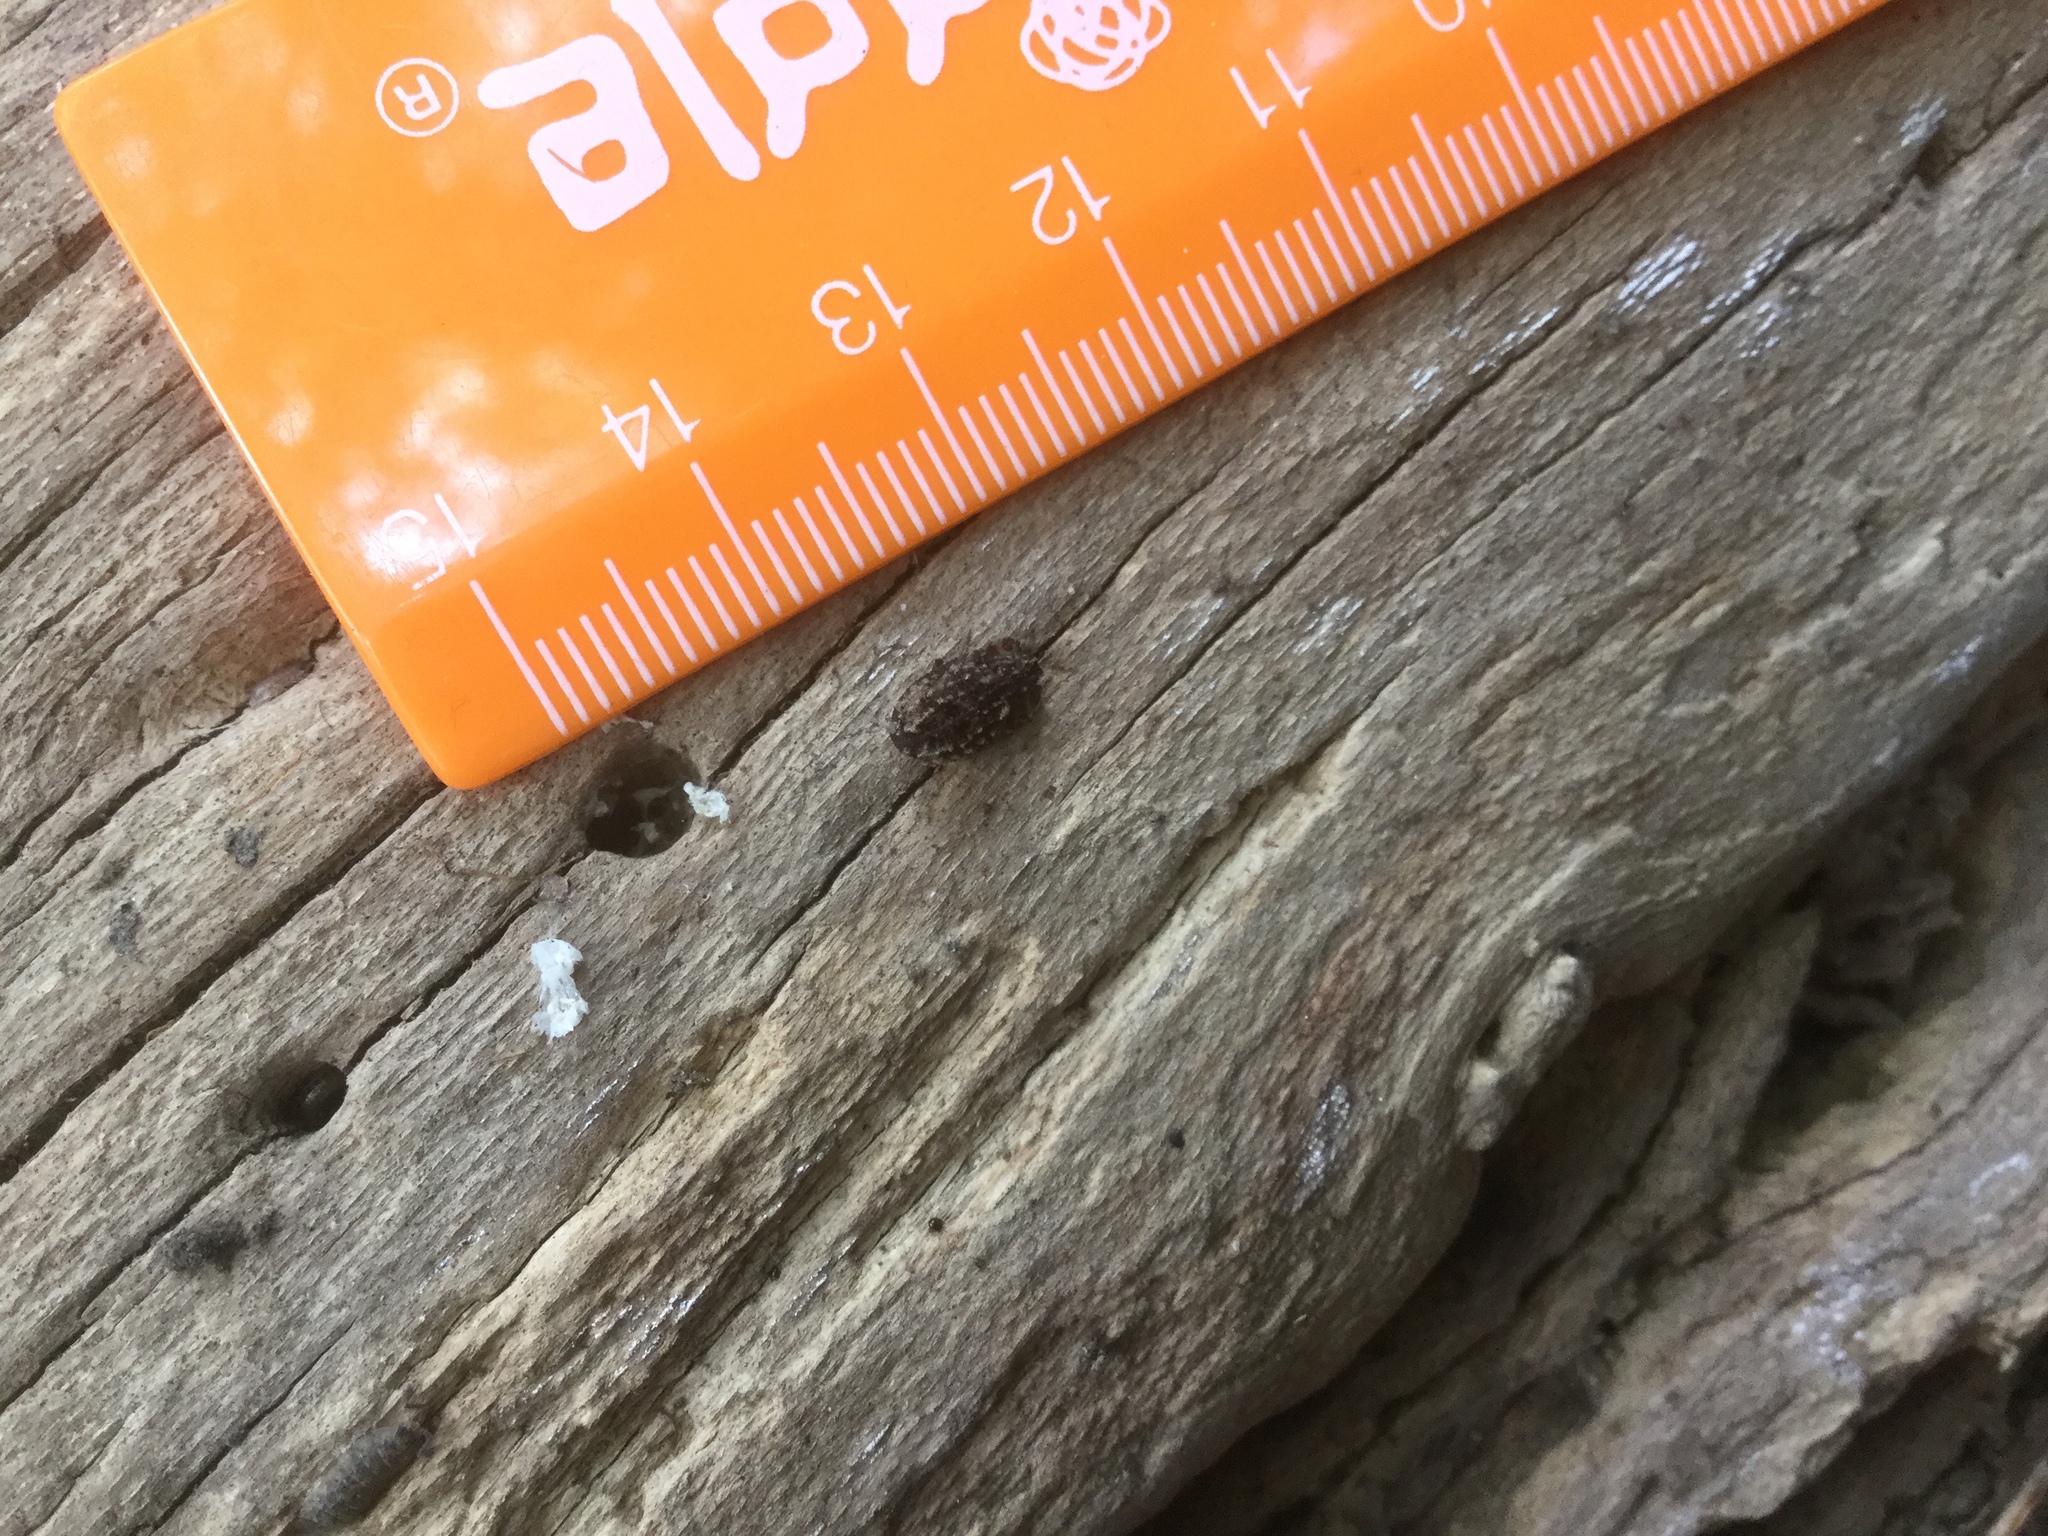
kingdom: Animalia
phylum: Arthropoda
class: Insecta
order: Coleoptera
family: Zopheridae
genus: Pristoderus
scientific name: Pristoderus
